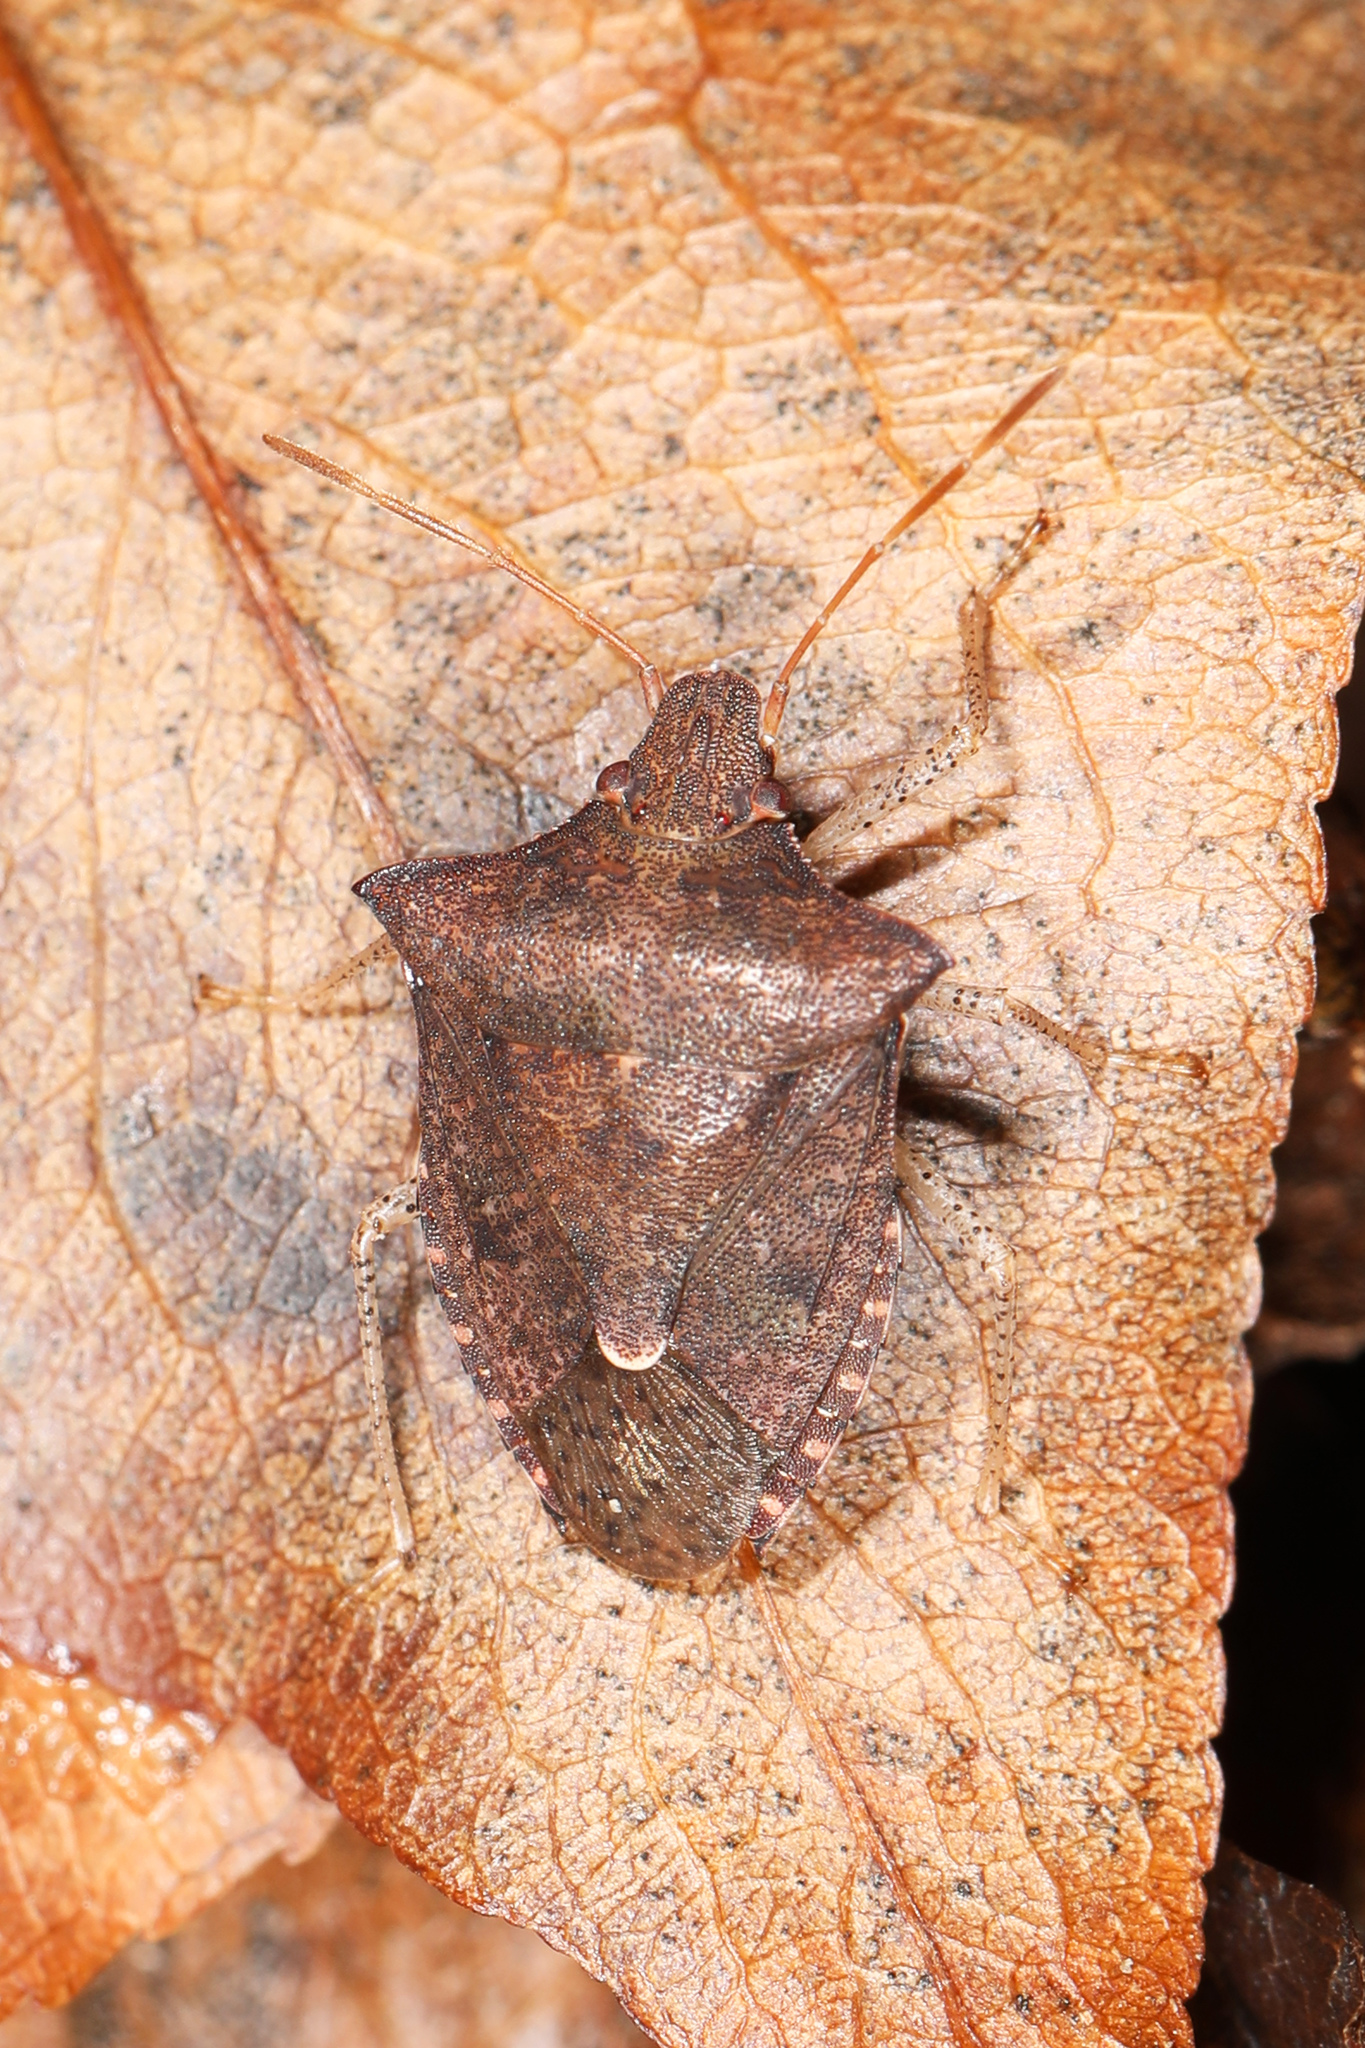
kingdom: Animalia
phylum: Arthropoda
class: Insecta
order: Hemiptera
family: Pentatomidae
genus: Euschistus
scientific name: Euschistus tristigmus
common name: Dusky stink bug
